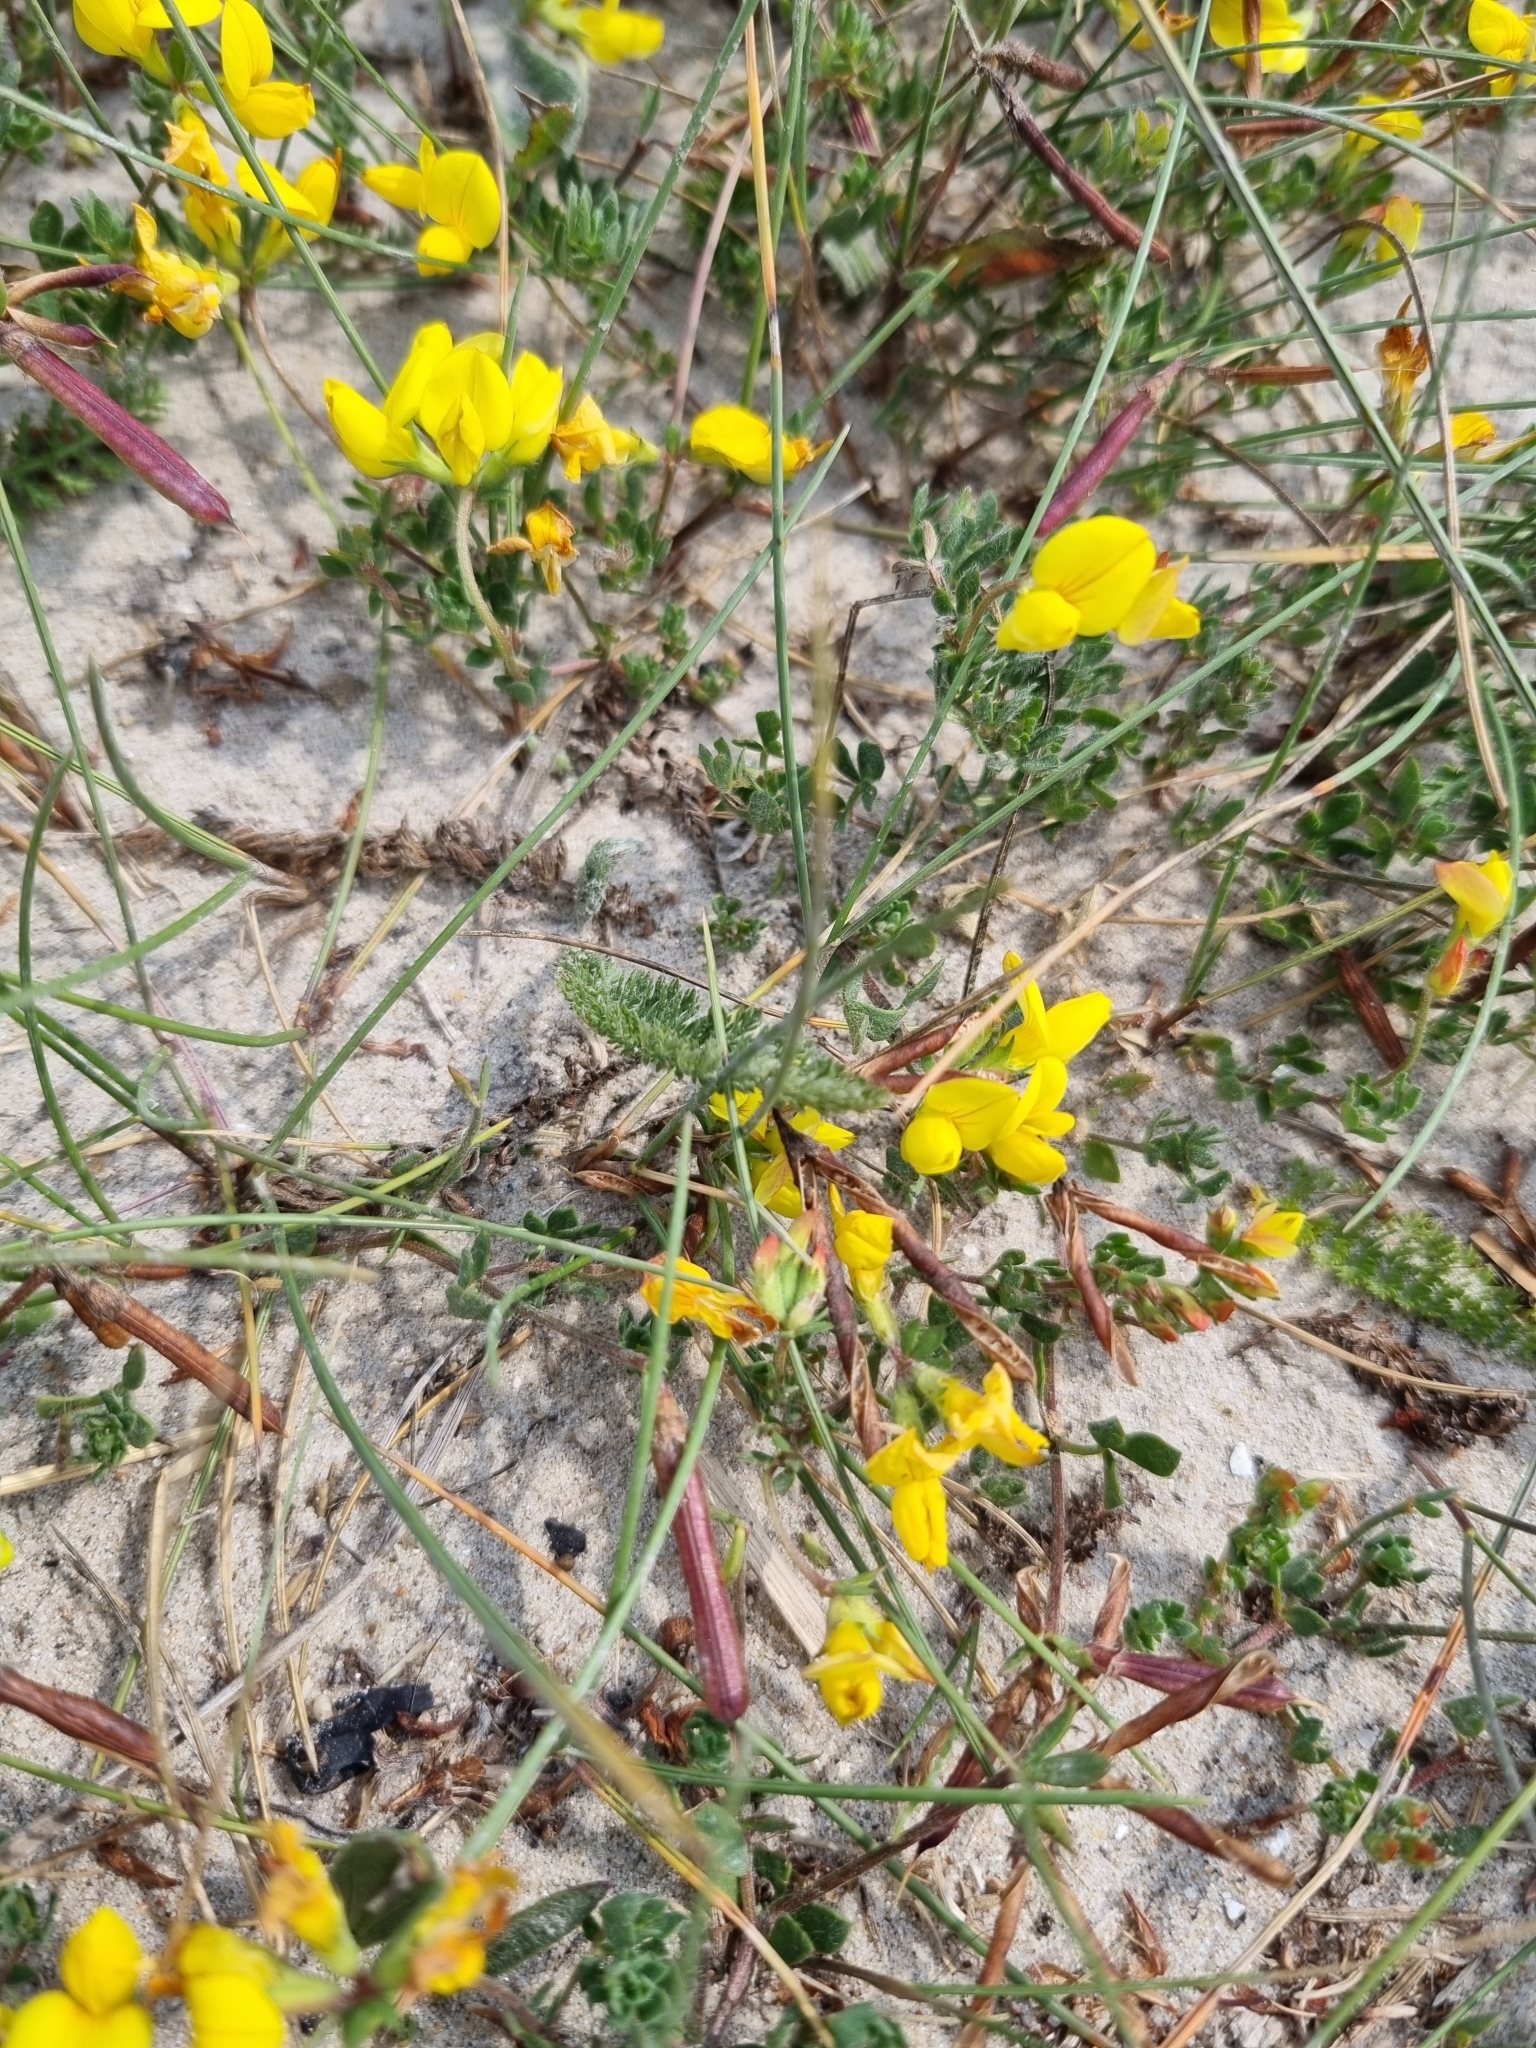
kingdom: Plantae
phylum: Tracheophyta
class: Magnoliopsida
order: Fabales
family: Fabaceae
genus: Lotus
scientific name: Lotus corniculatus
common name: Common bird's-foot-trefoil
